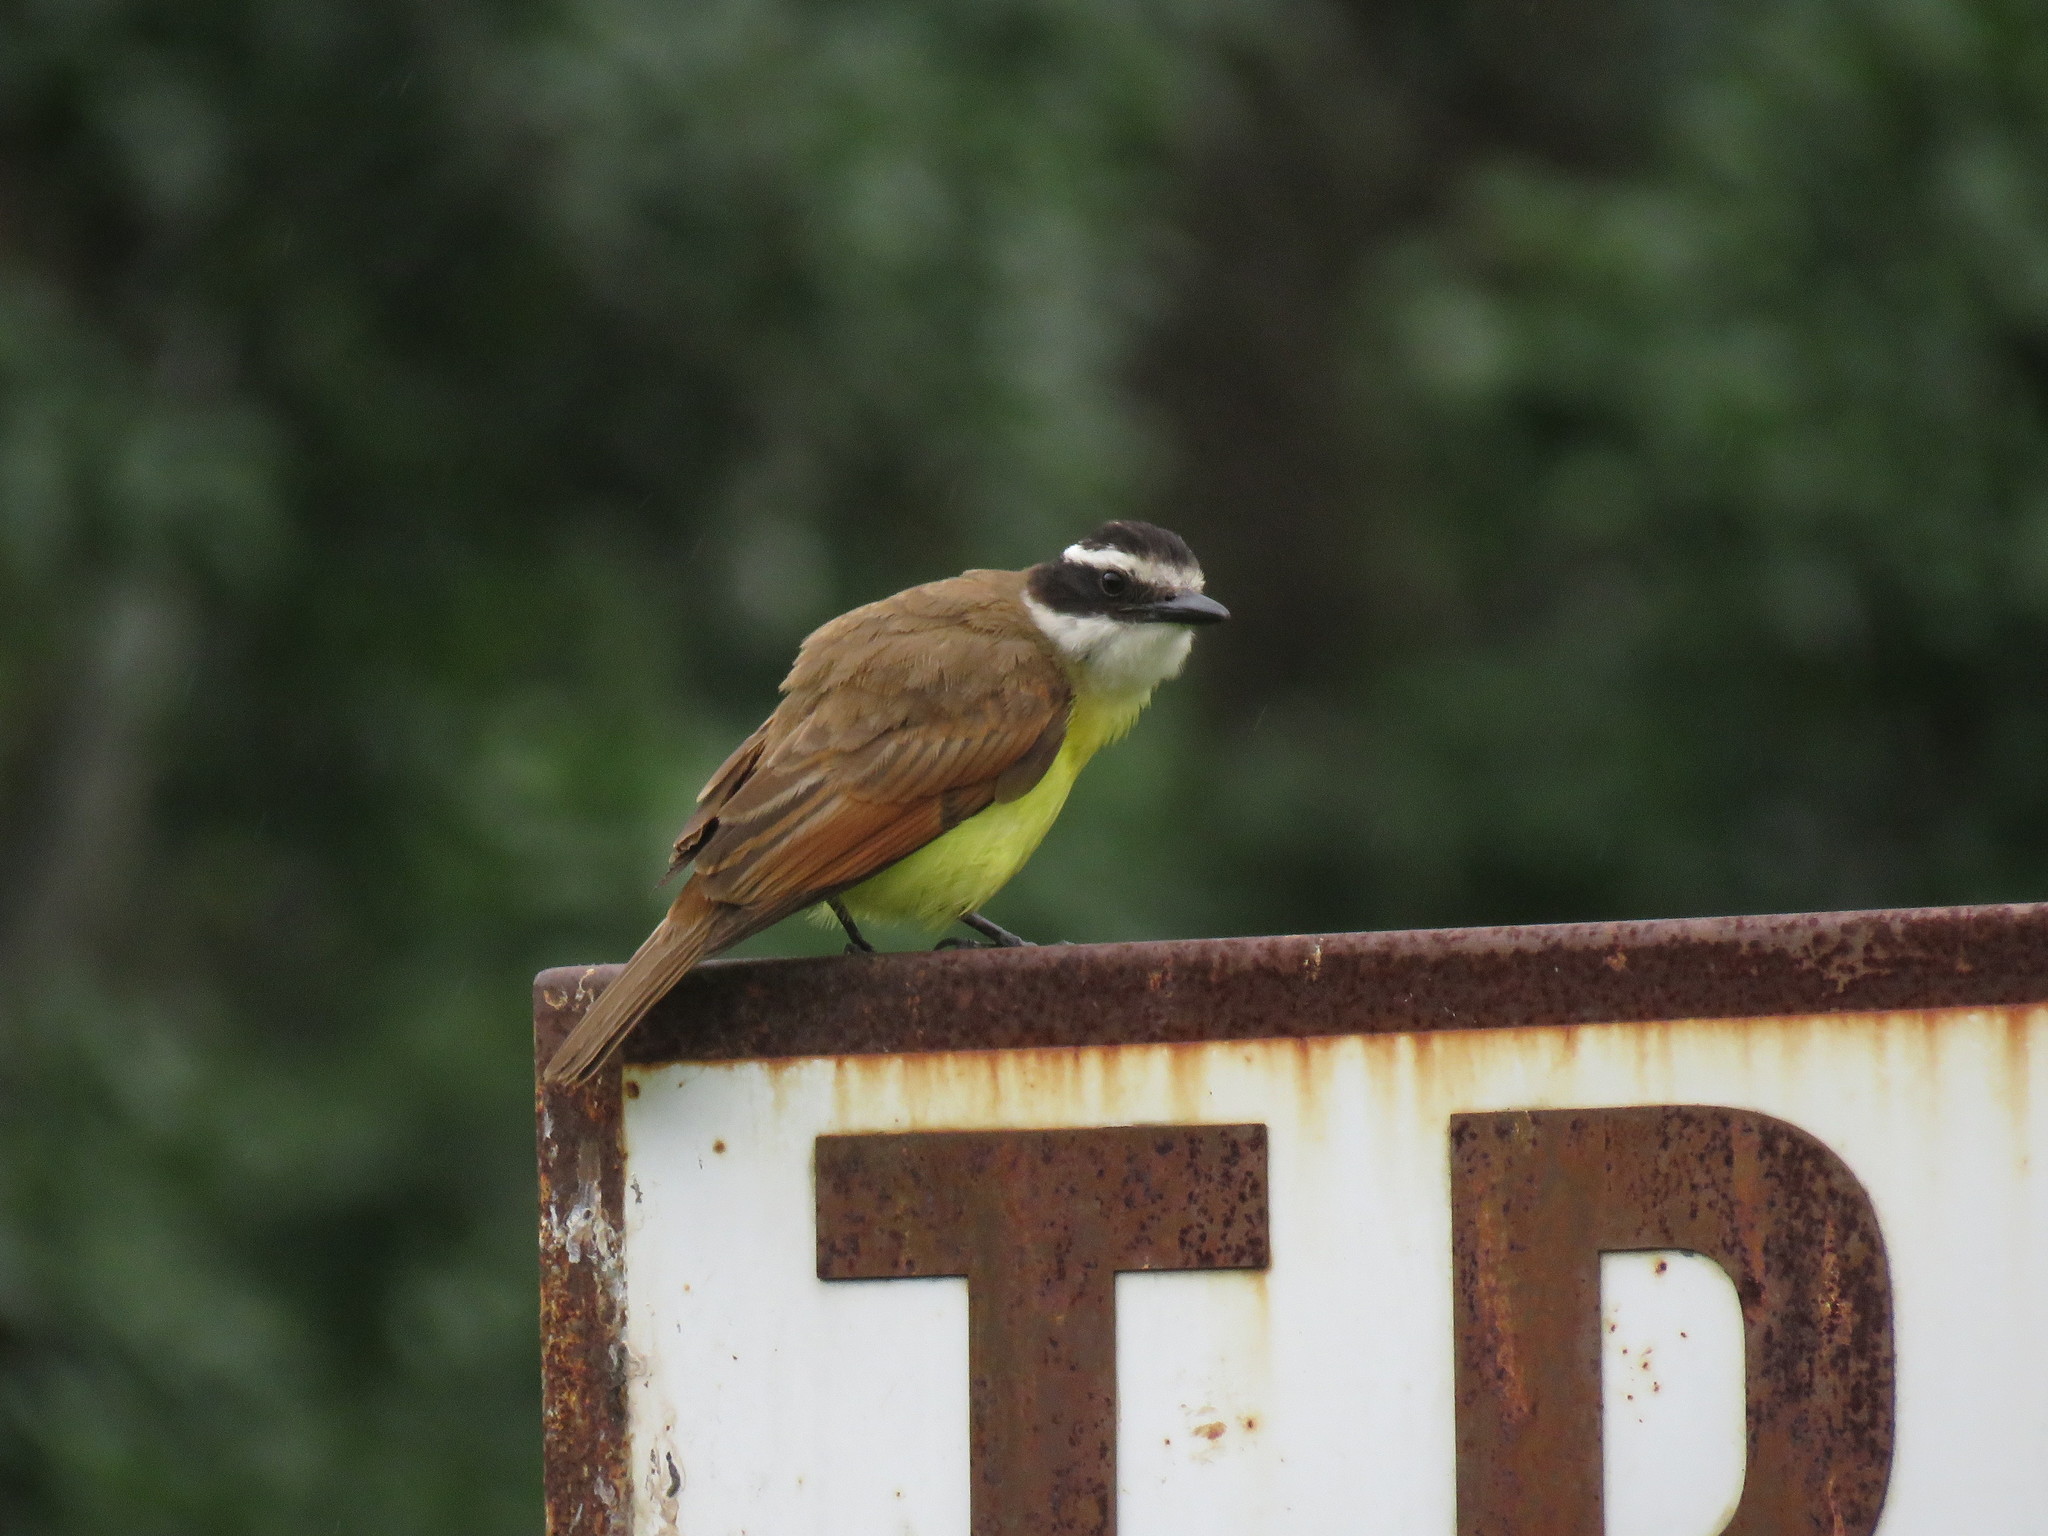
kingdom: Animalia
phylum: Chordata
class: Aves
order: Passeriformes
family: Tyrannidae
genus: Pitangus
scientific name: Pitangus sulphuratus
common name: Great kiskadee
